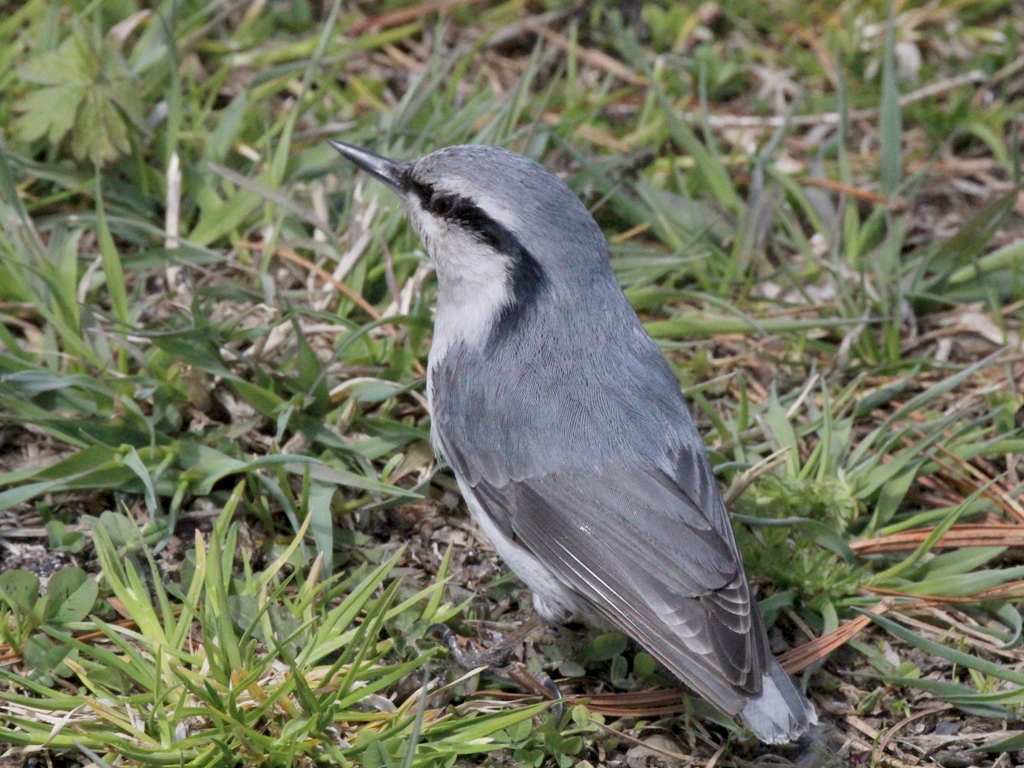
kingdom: Animalia
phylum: Chordata
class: Aves
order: Passeriformes
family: Sittidae
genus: Sitta
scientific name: Sitta europaea
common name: Eurasian nuthatch
